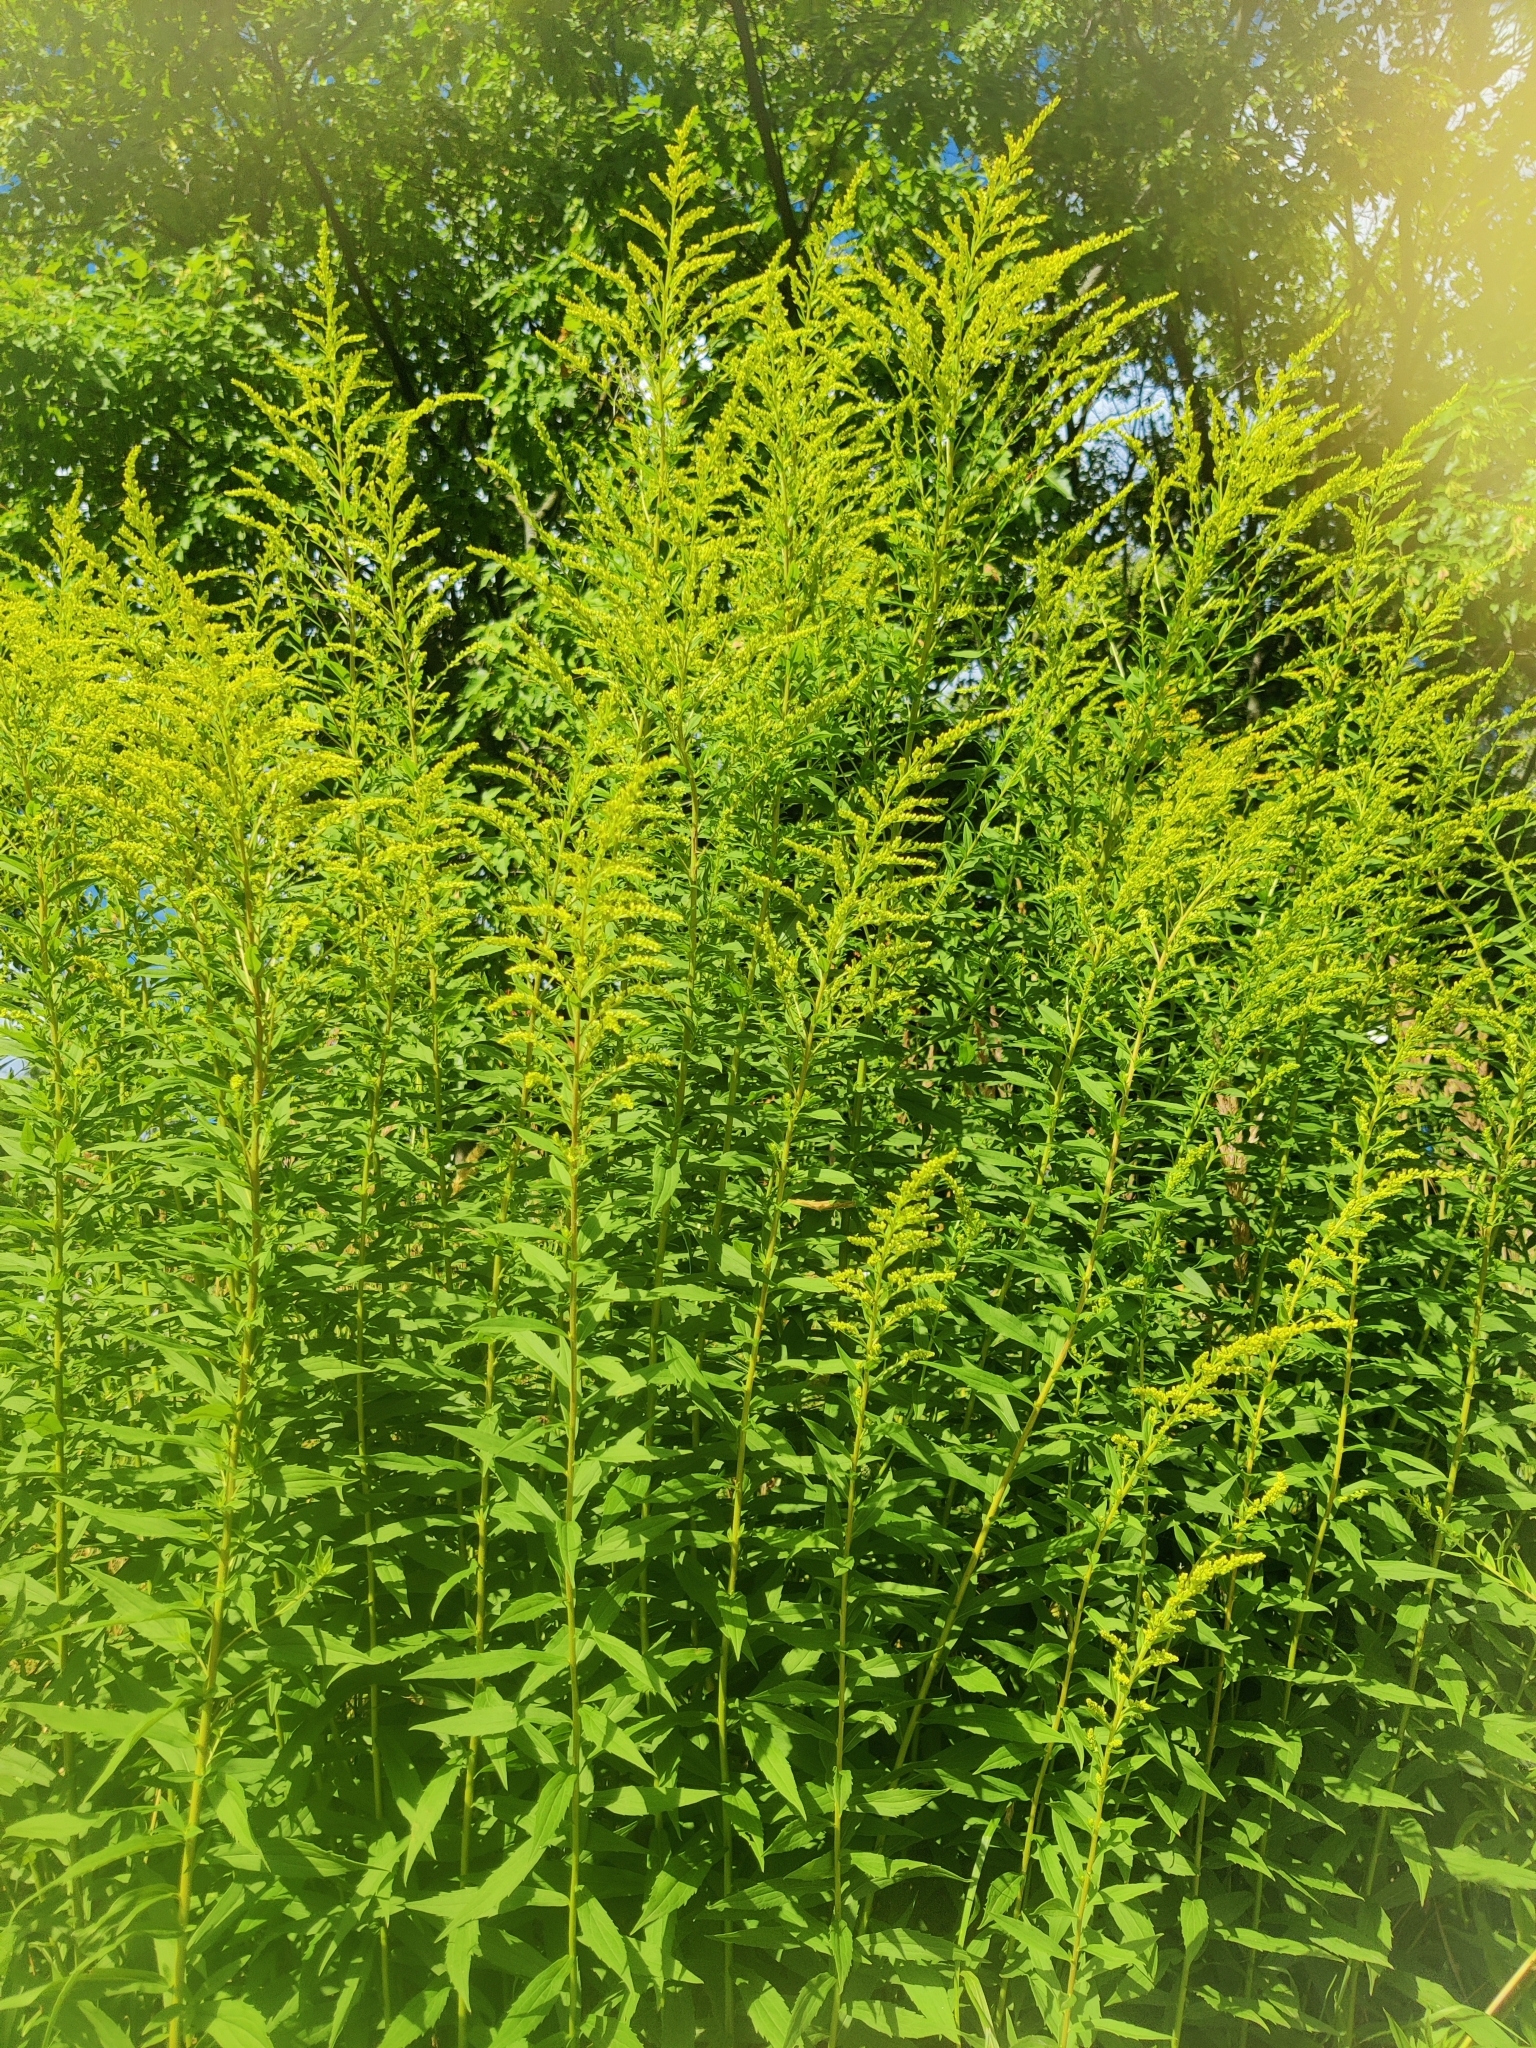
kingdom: Plantae
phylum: Tracheophyta
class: Magnoliopsida
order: Asterales
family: Asteraceae
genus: Solidago
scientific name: Solidago canadensis
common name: Canada goldenrod
